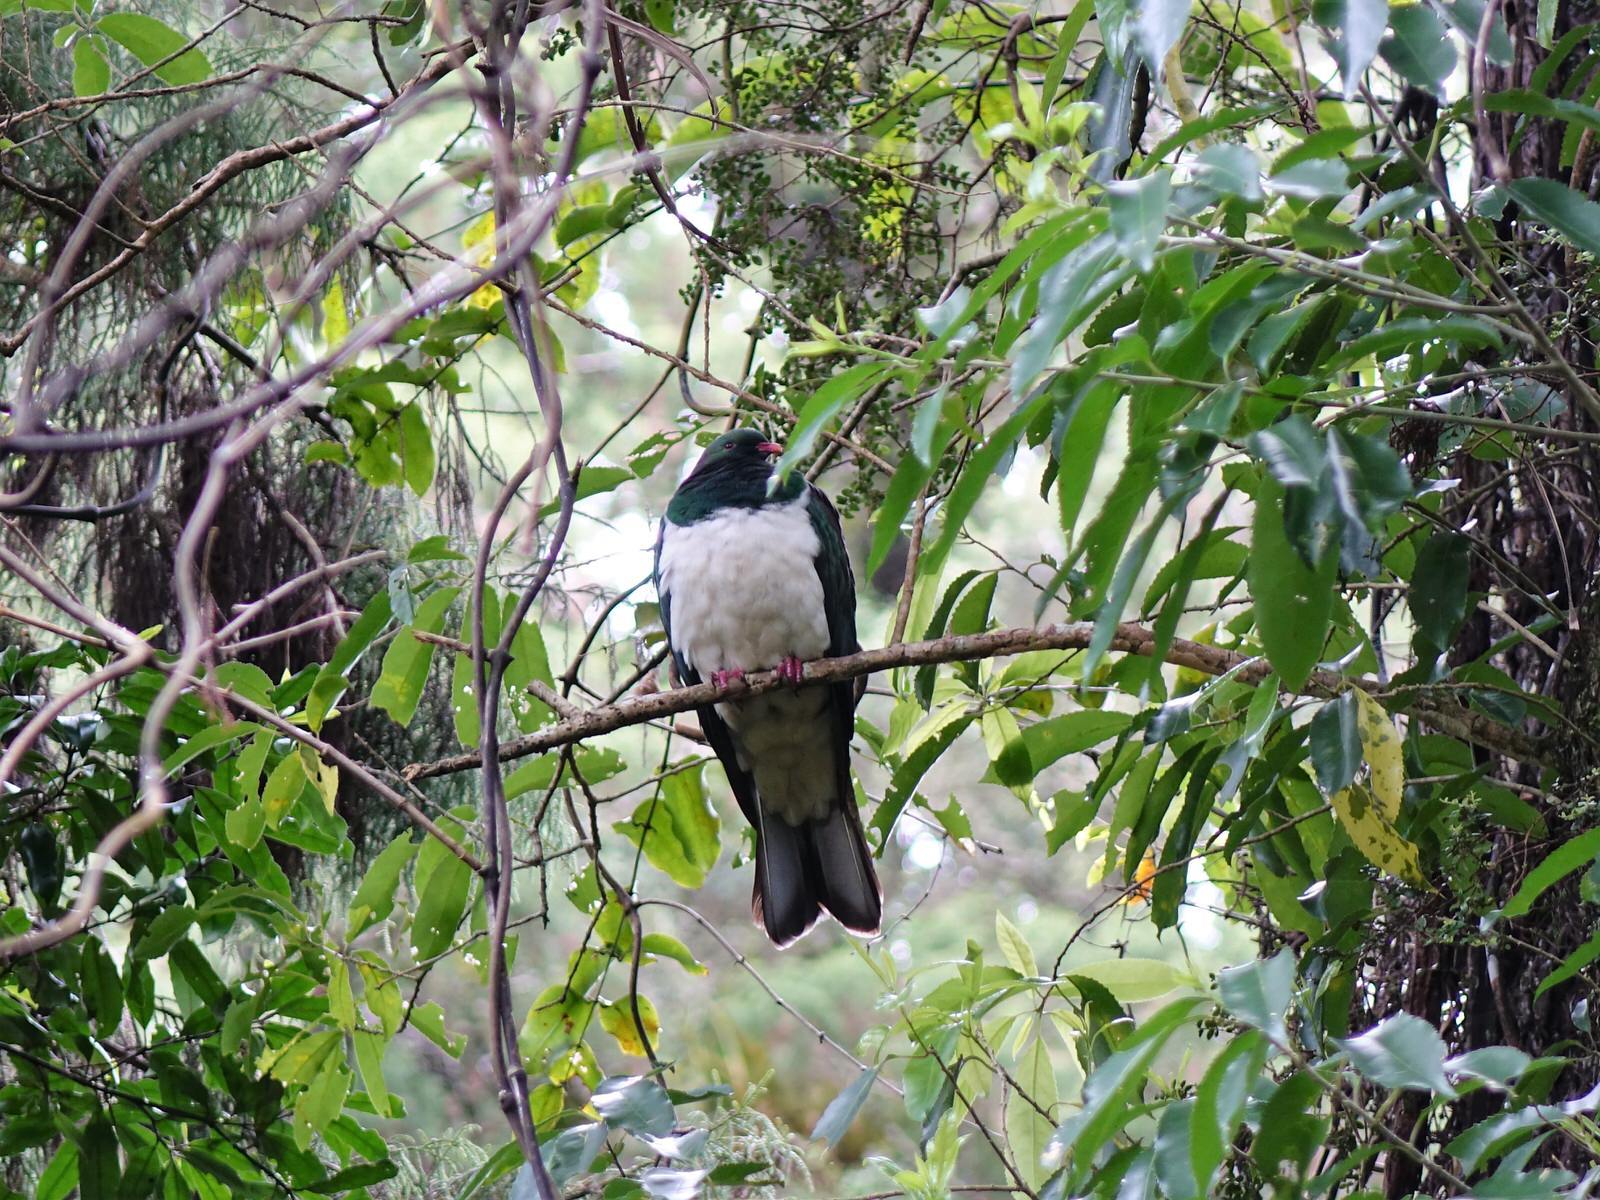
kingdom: Animalia
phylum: Chordata
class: Aves
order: Columbiformes
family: Columbidae
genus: Hemiphaga
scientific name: Hemiphaga novaeseelandiae
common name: New zealand pigeon
